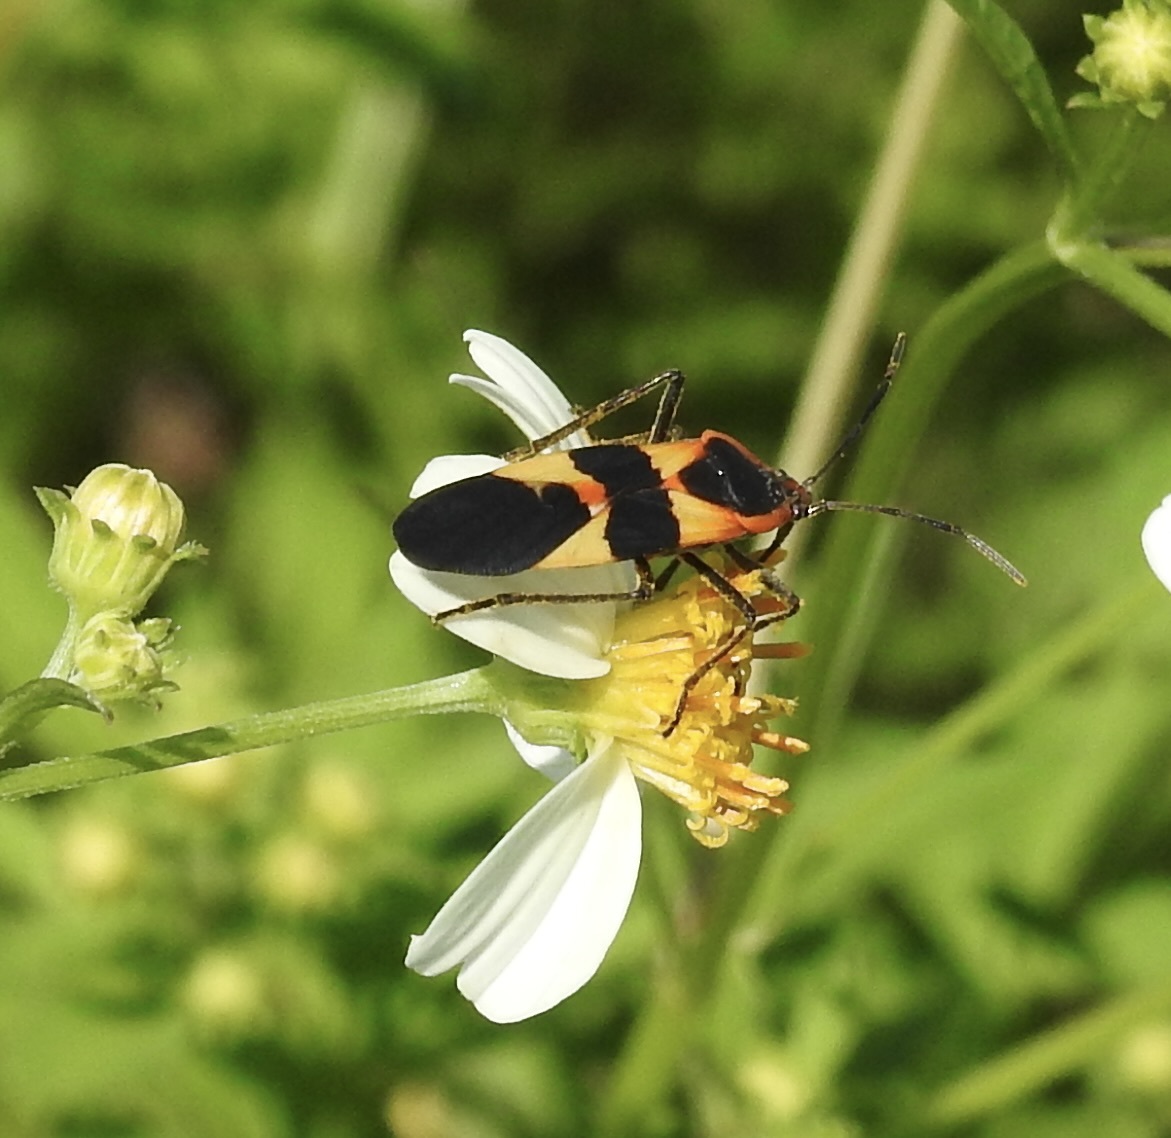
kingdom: Animalia
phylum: Arthropoda
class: Insecta
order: Hemiptera
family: Lygaeidae
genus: Oncopeltus
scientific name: Oncopeltus fasciatus
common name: Large milkweed bug
